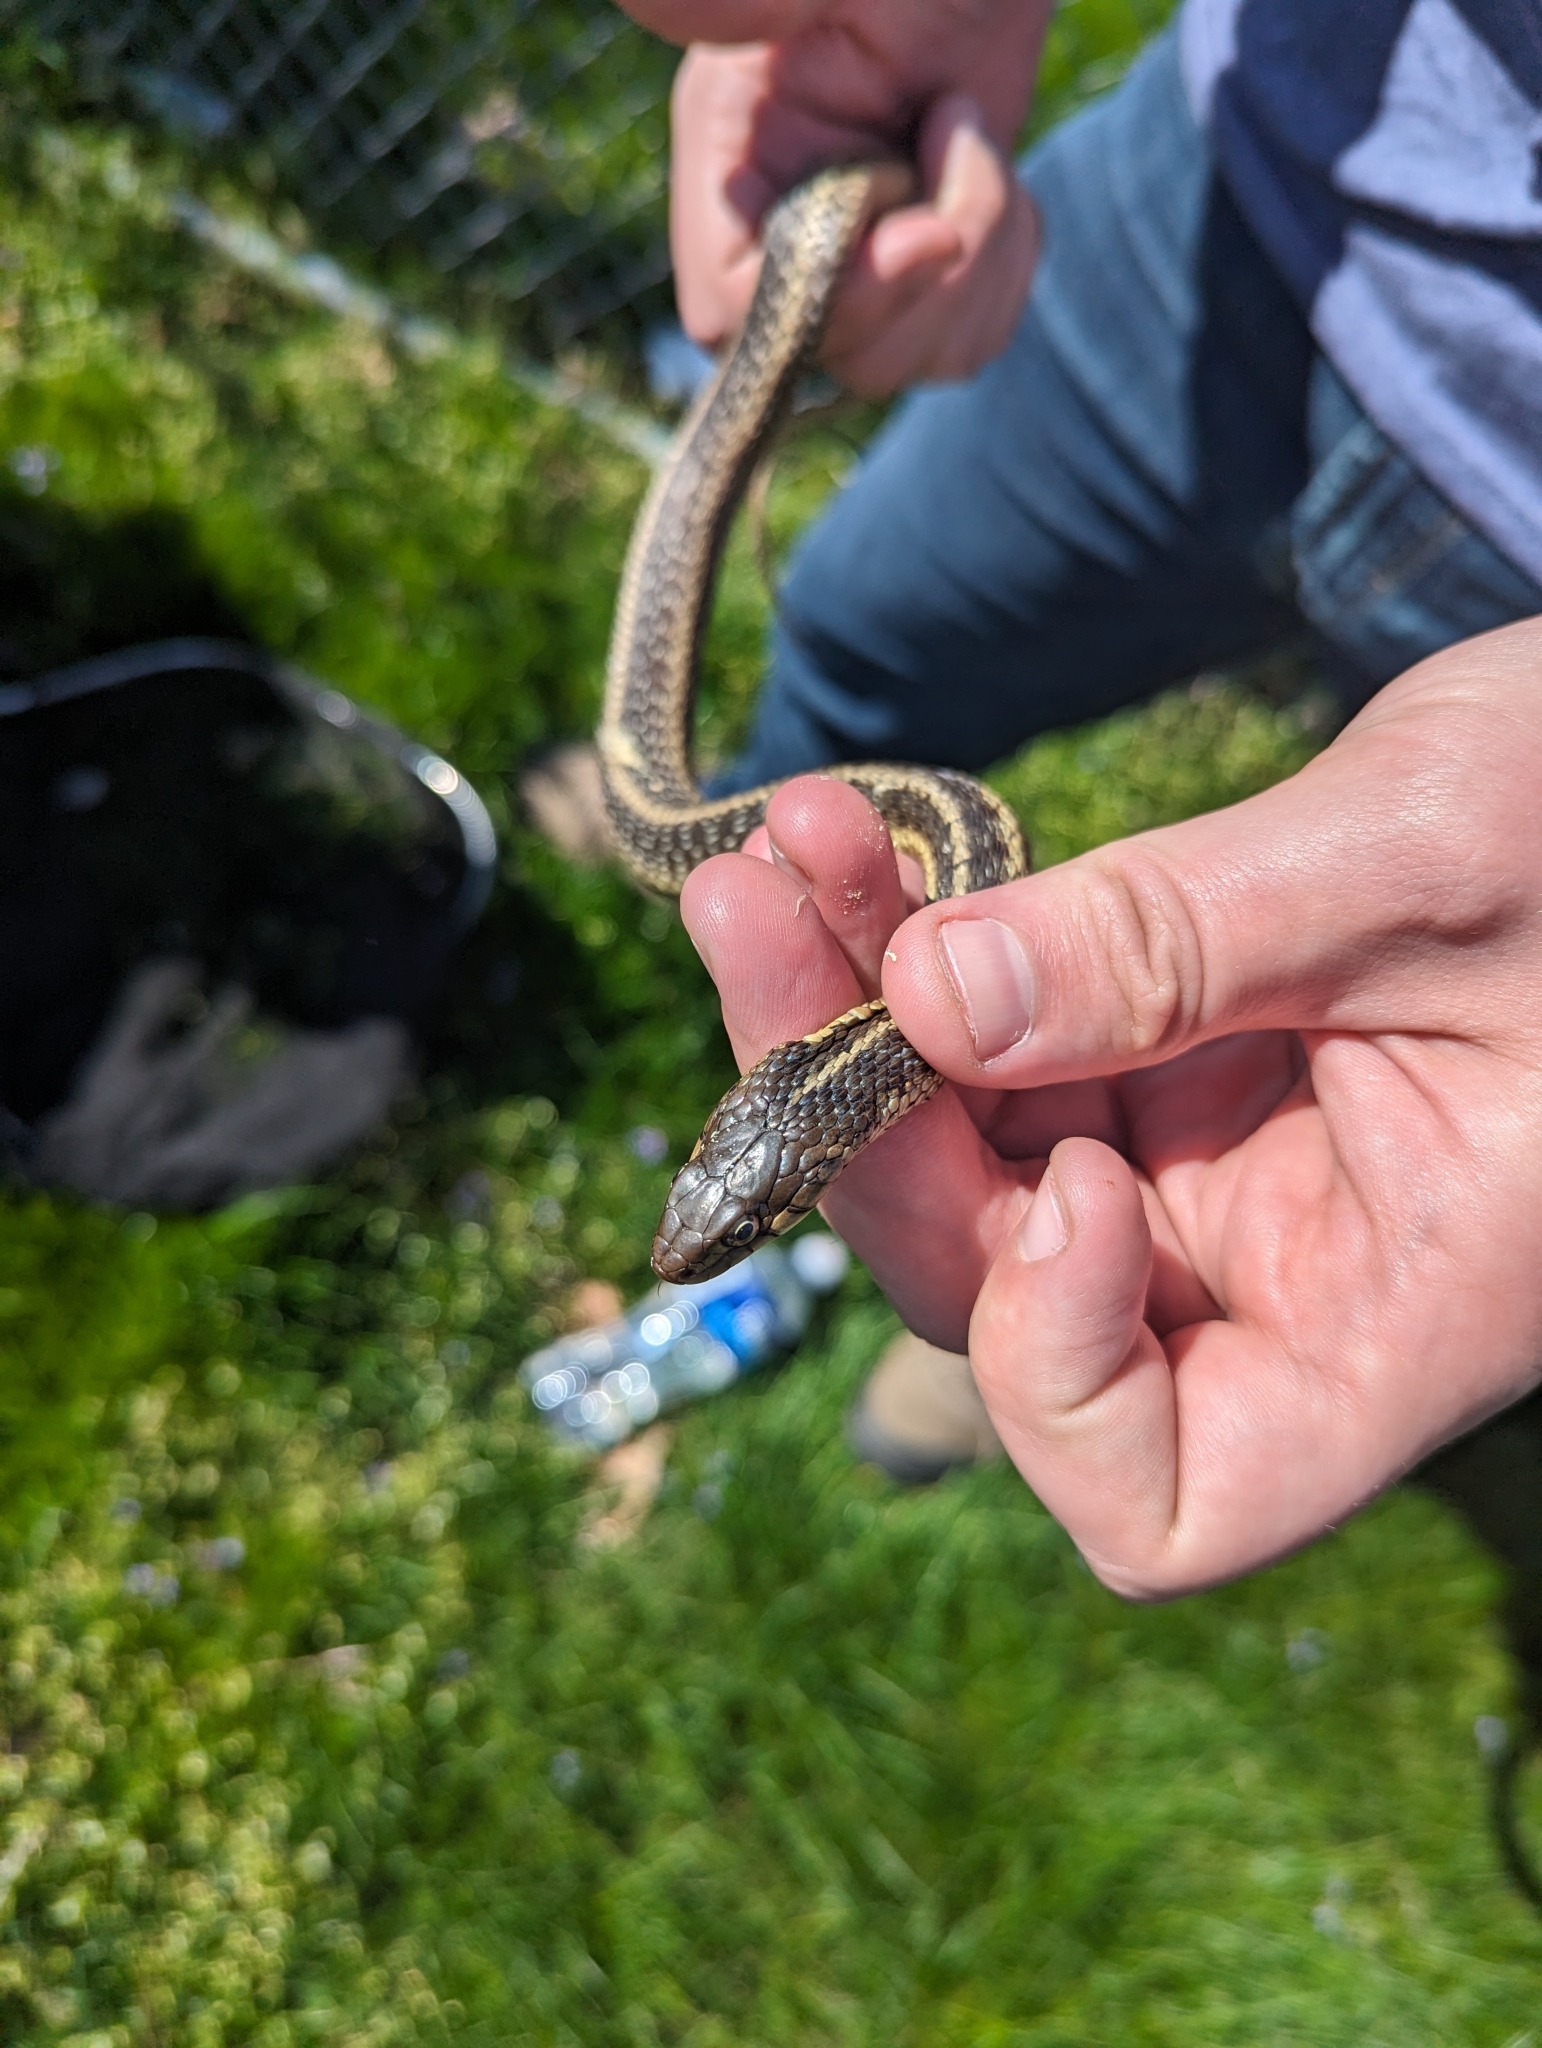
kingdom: Animalia
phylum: Chordata
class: Squamata
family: Colubridae
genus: Thamnophis
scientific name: Thamnophis sirtalis
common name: Common garter snake
